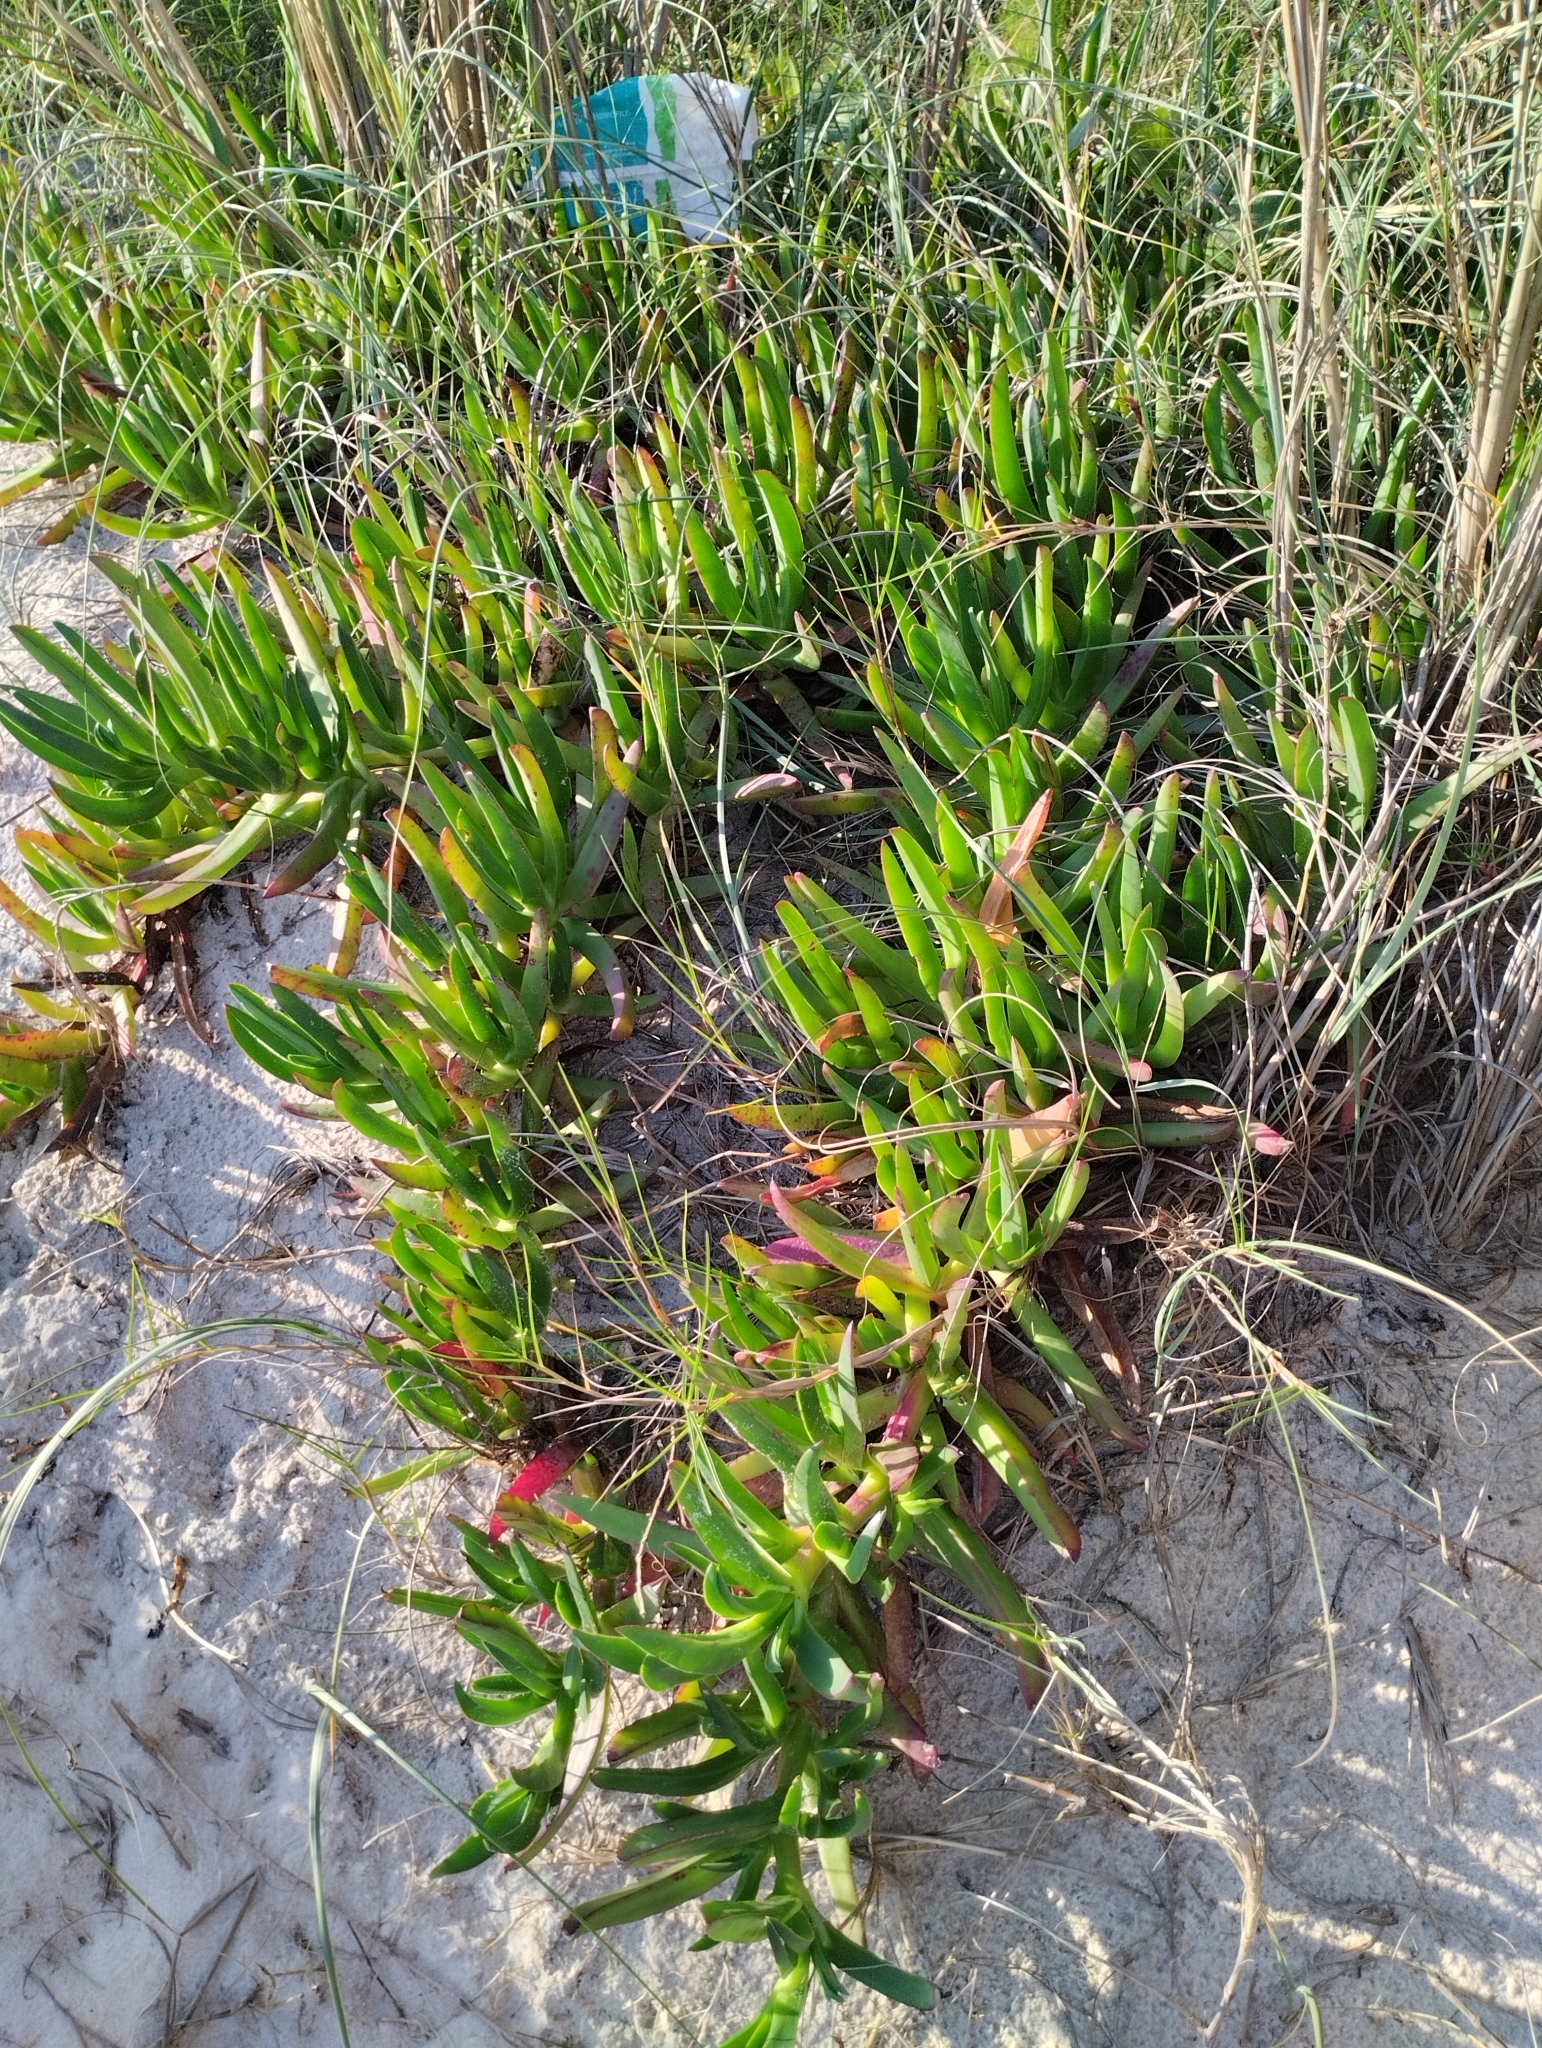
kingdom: Plantae
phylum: Tracheophyta
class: Magnoliopsida
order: Caryophyllales
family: Aizoaceae
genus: Carpobrotus
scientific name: Carpobrotus edulis
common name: Hottentot-fig
